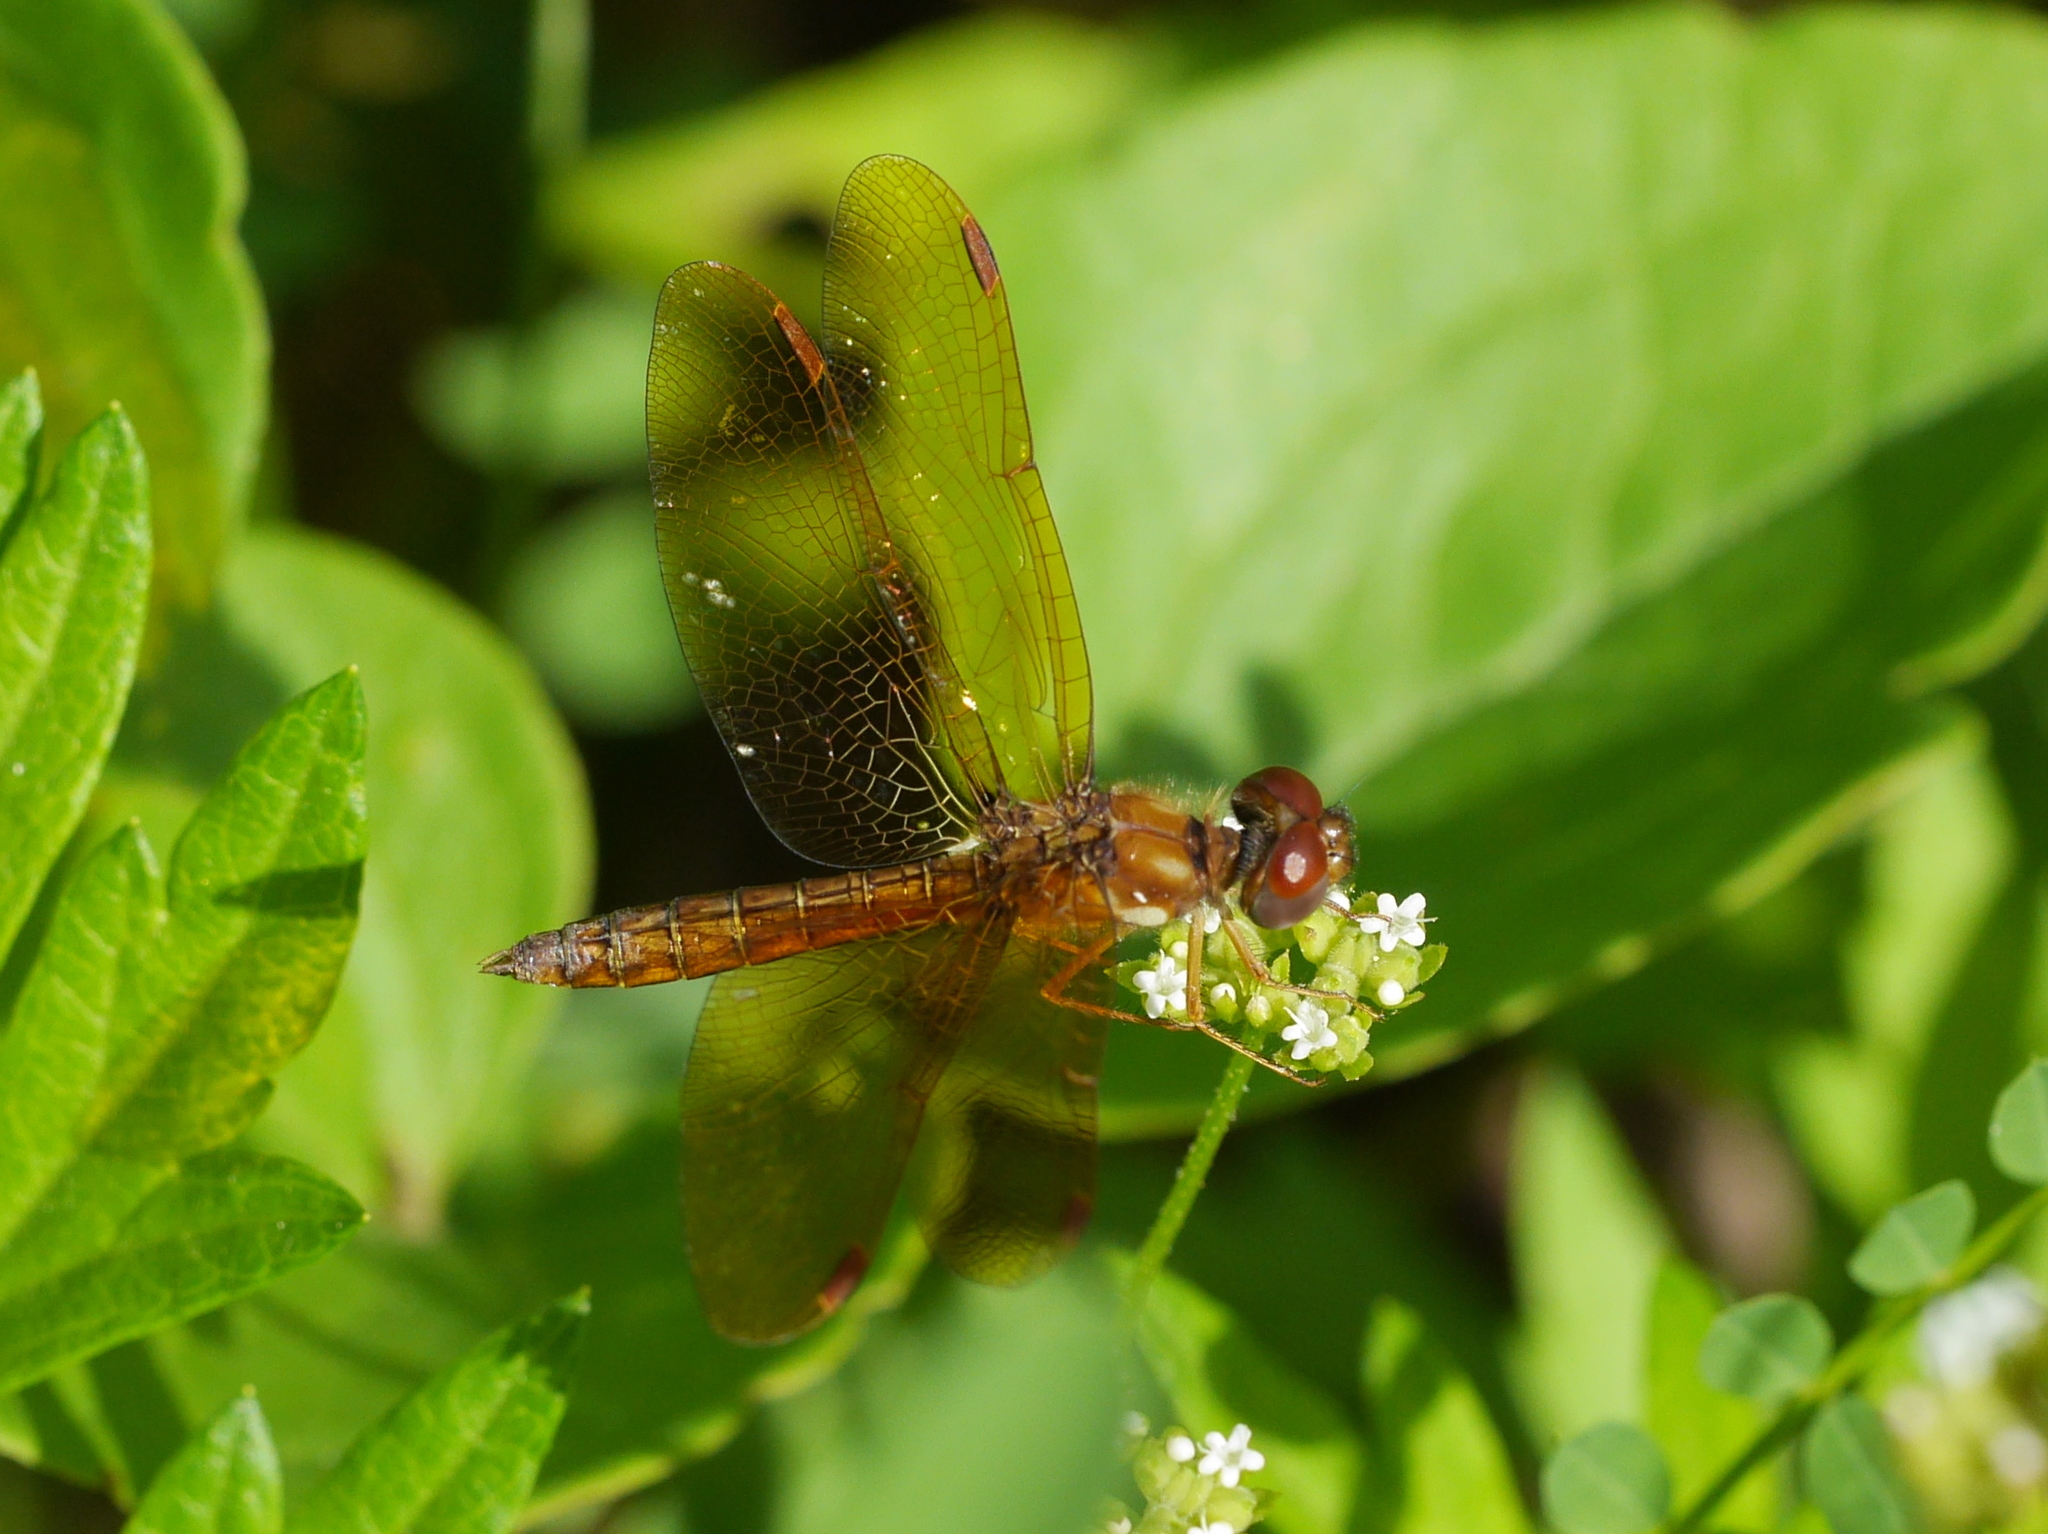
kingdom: Animalia
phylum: Arthropoda
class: Insecta
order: Odonata
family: Libellulidae
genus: Perithemis
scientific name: Perithemis tenera
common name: Eastern amberwing
